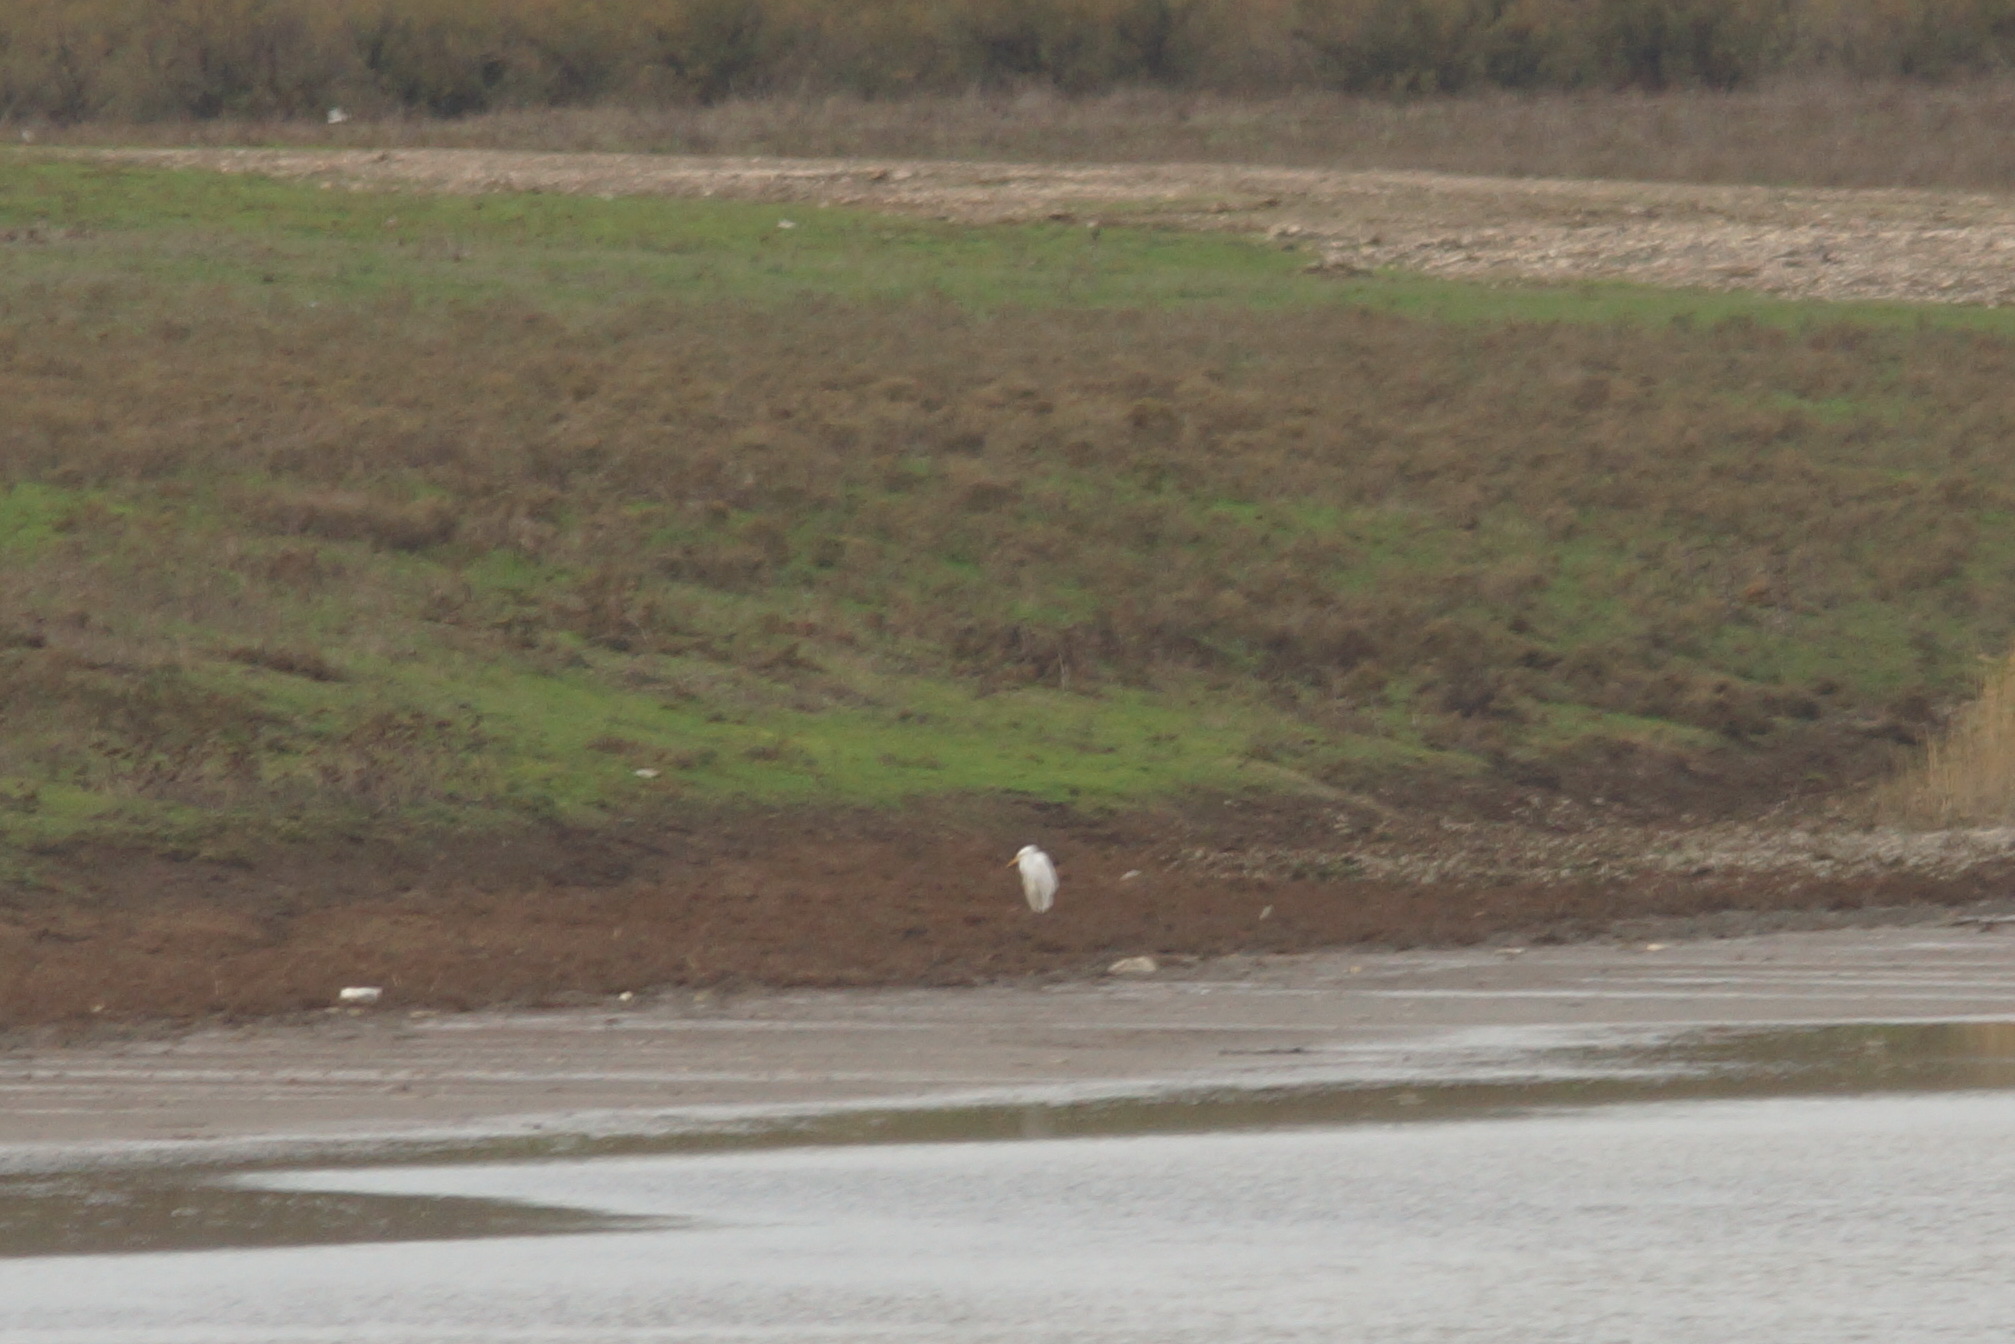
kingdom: Animalia
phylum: Chordata
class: Aves
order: Pelecaniformes
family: Ardeidae
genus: Ardea
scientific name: Ardea alba
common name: Great egret
